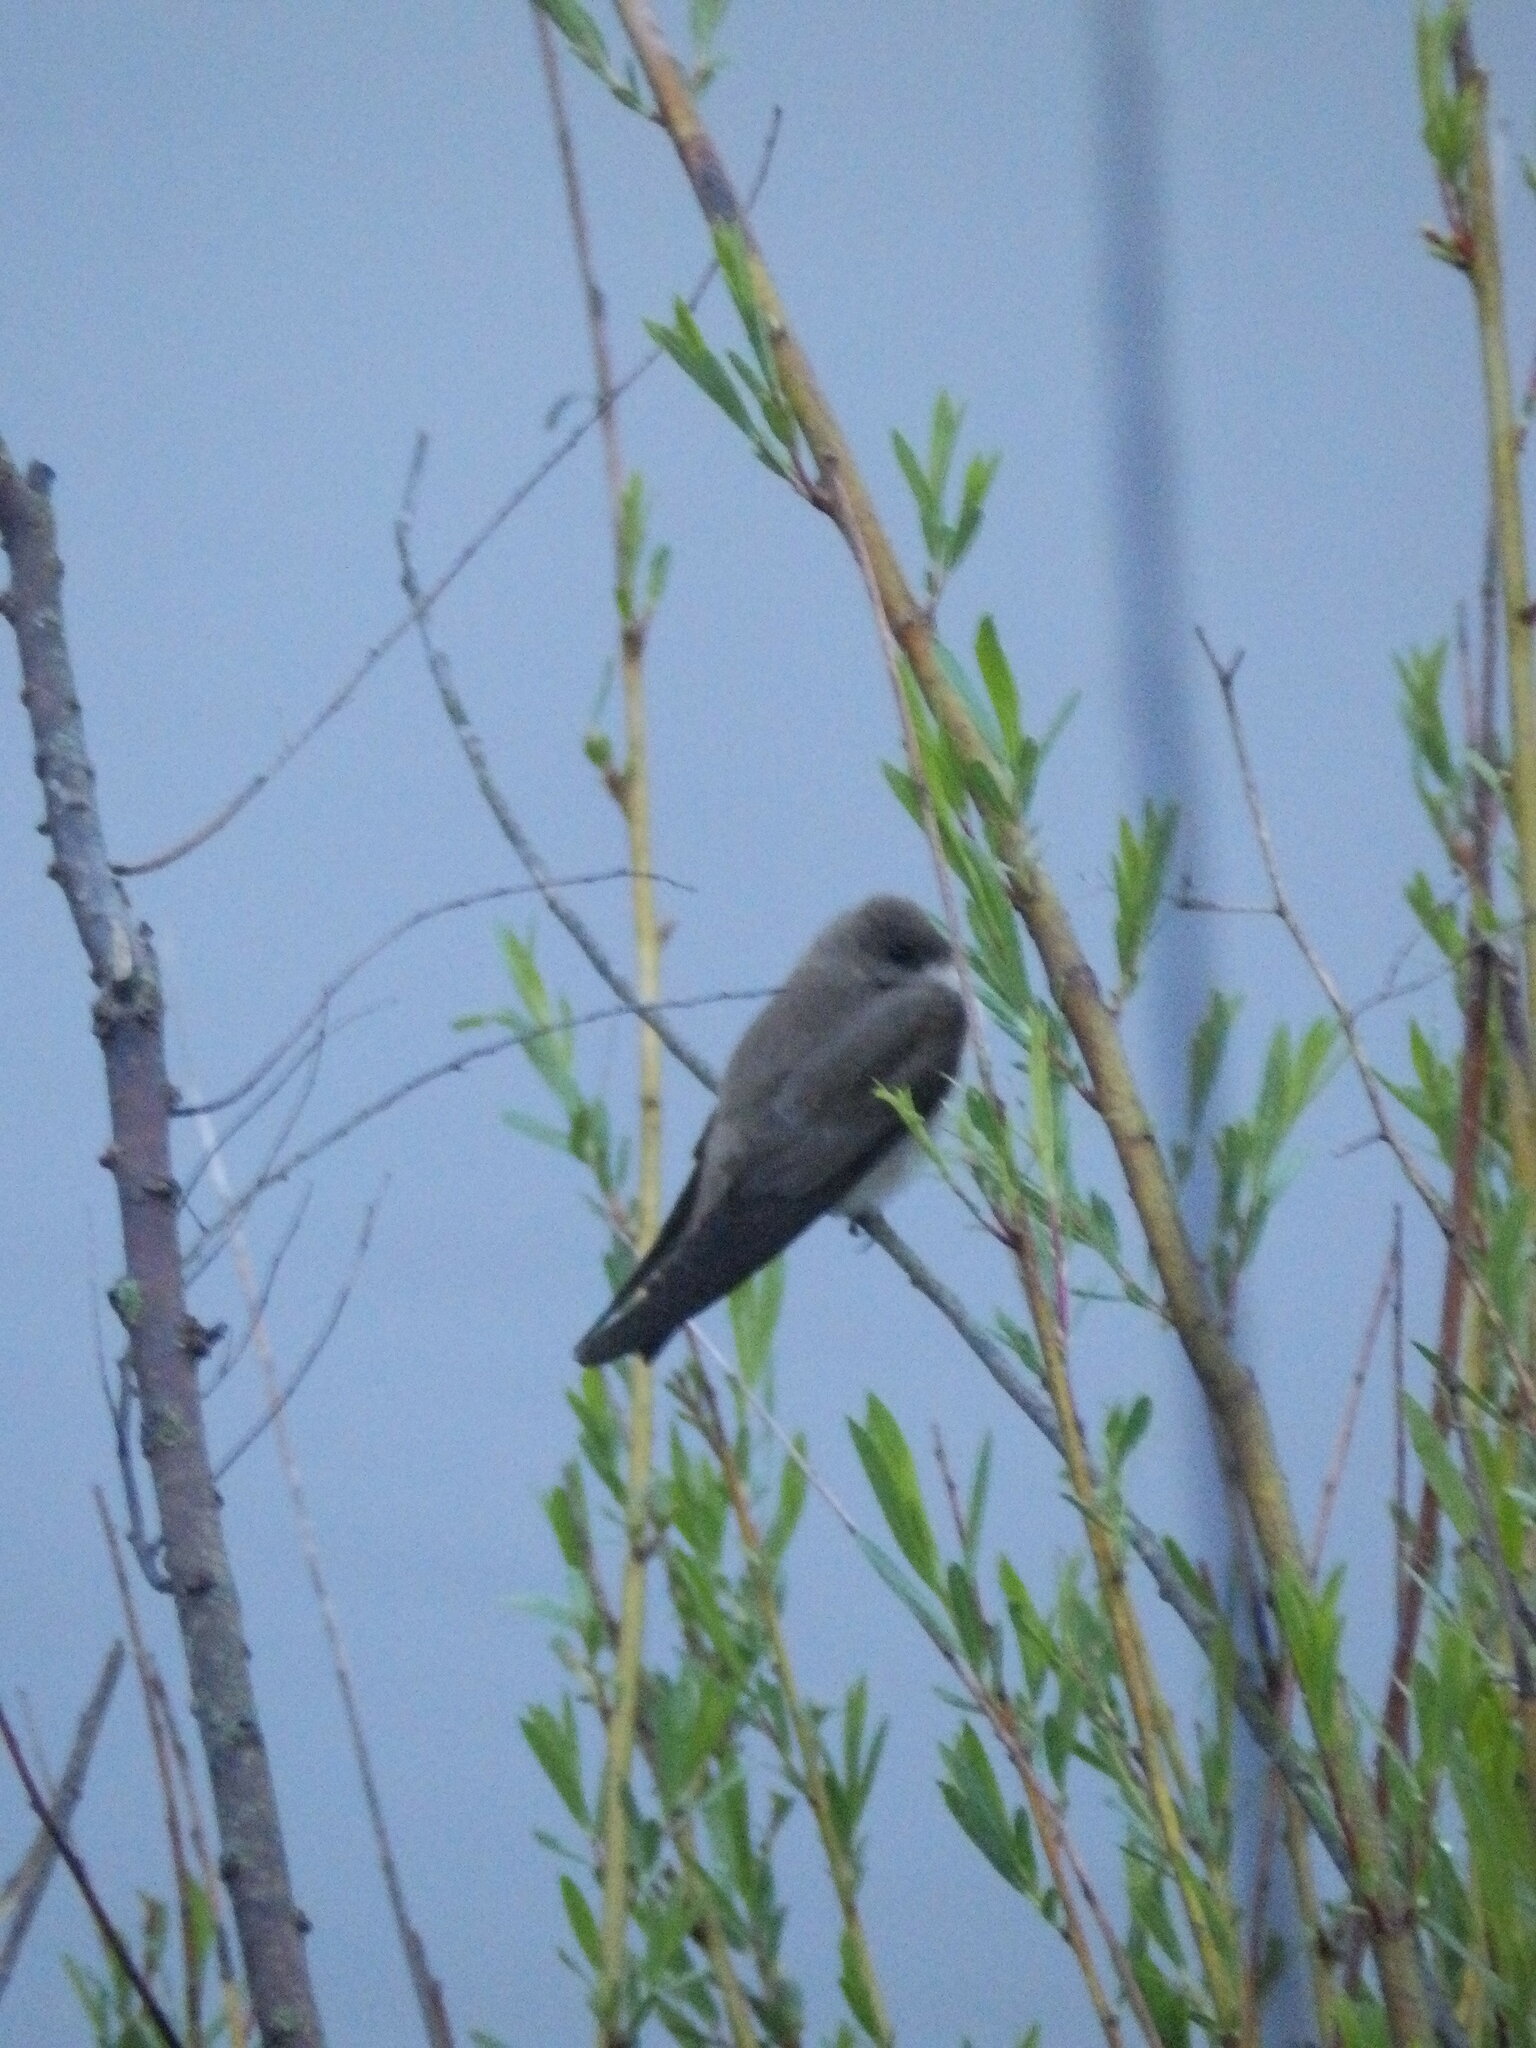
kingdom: Animalia
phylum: Chordata
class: Aves
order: Passeriformes
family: Hirundinidae
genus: Stelgidopteryx
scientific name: Stelgidopteryx serripennis
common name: Northern rough-winged swallow
